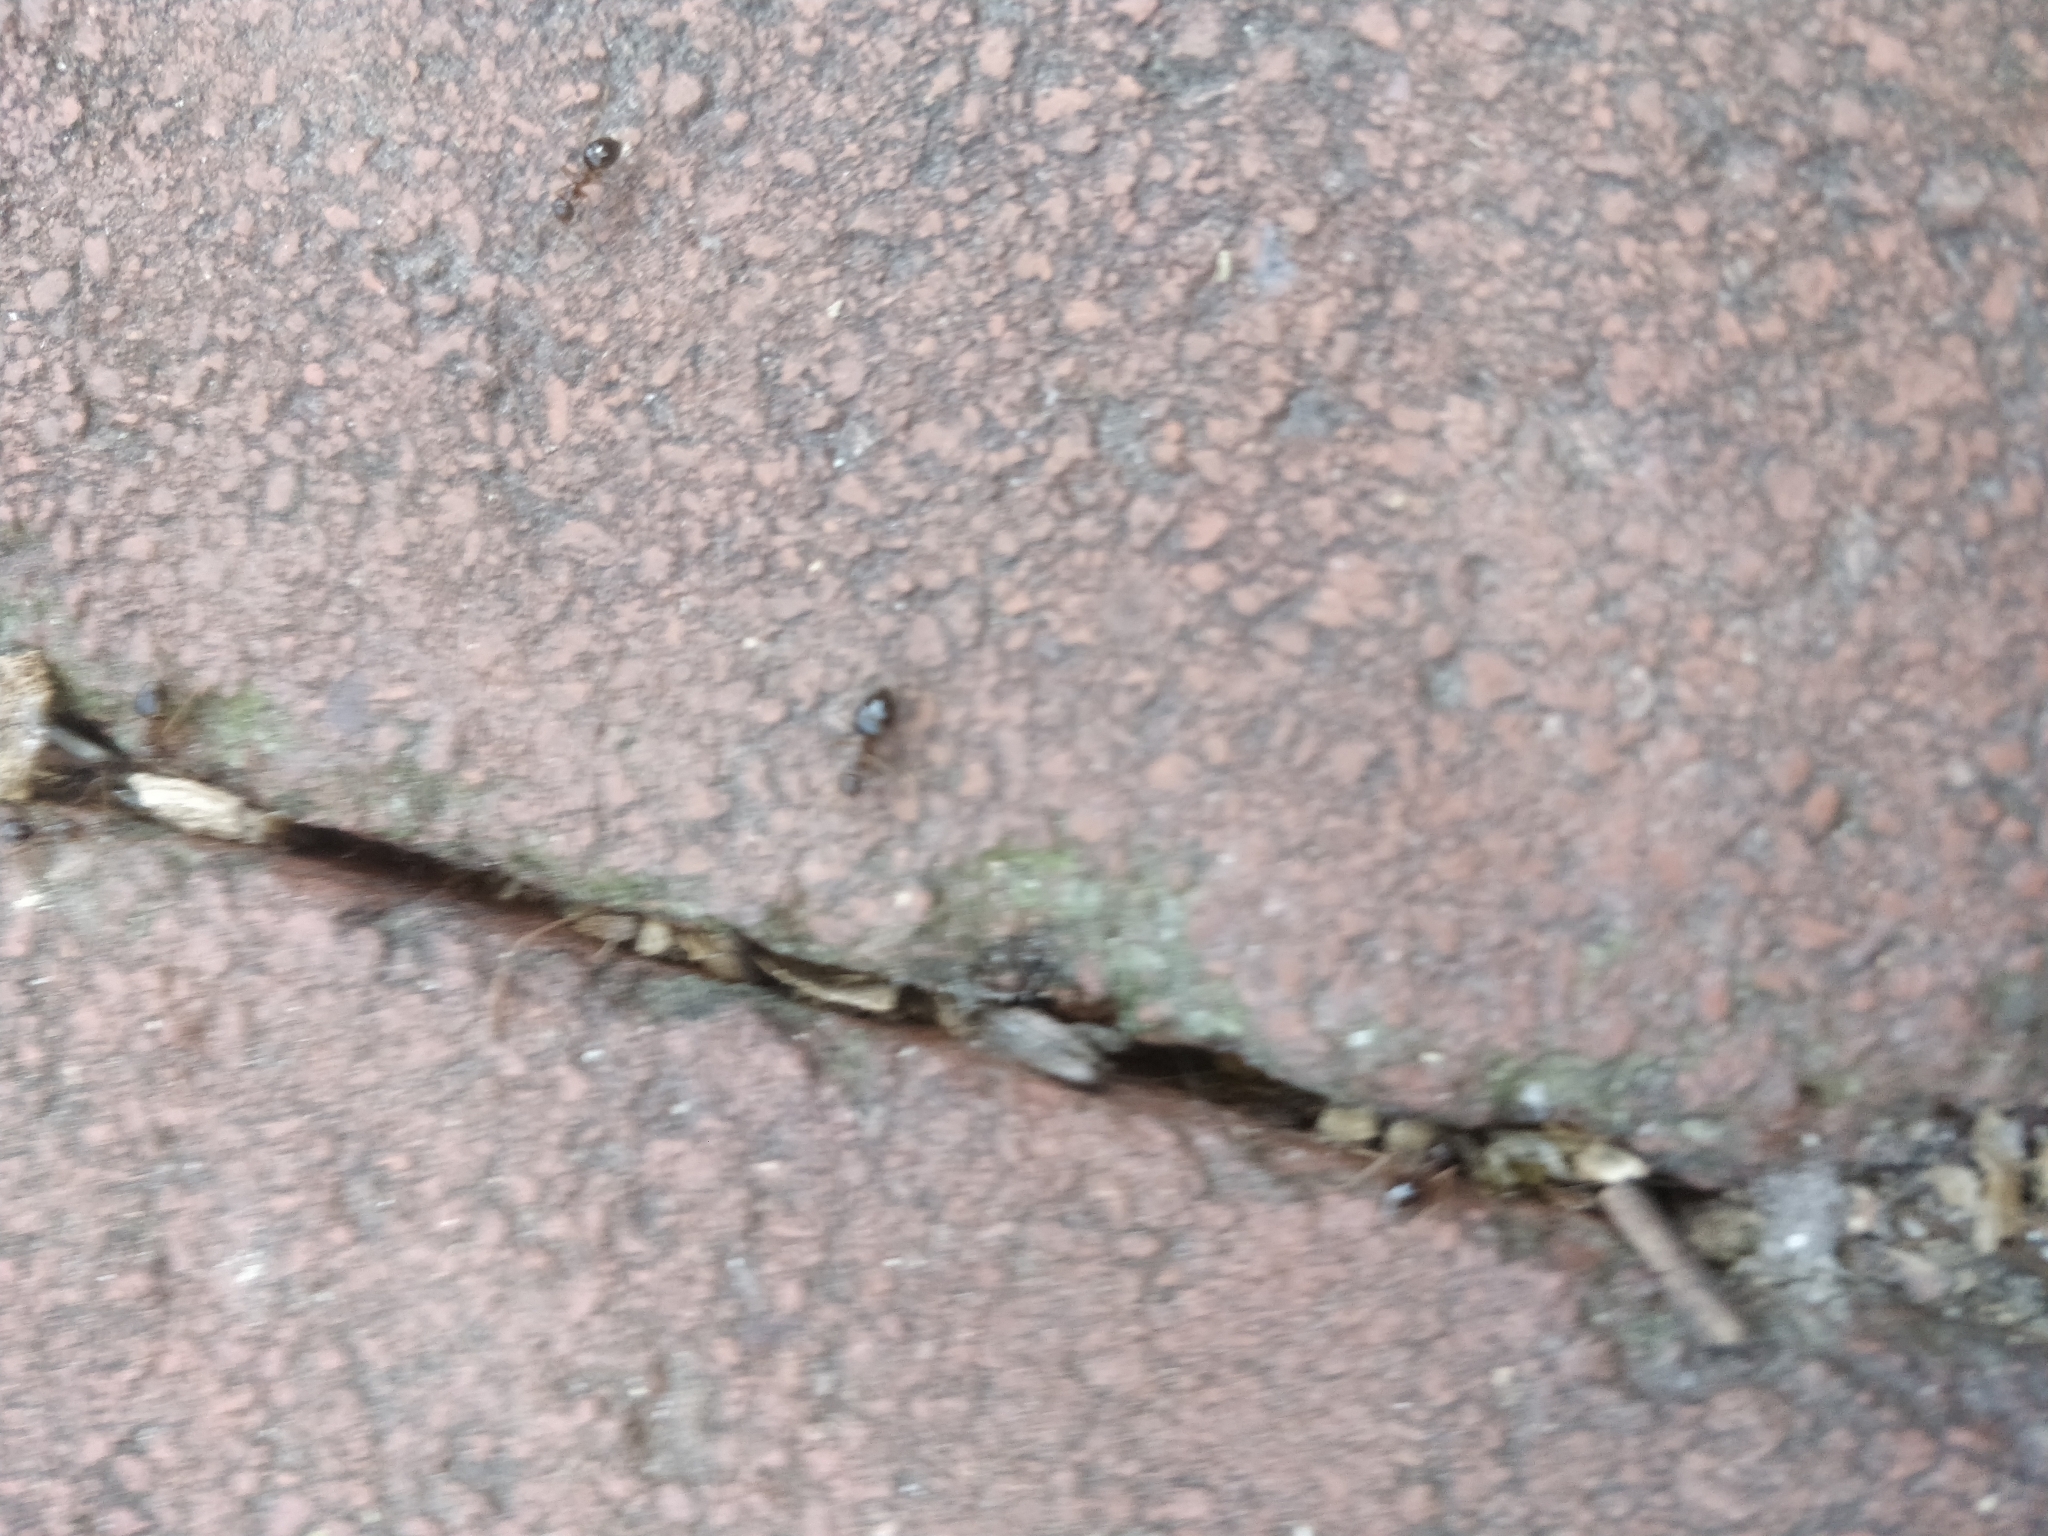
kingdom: Animalia
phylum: Arthropoda
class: Insecta
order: Hymenoptera
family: Formicidae
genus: Prenolepis
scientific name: Prenolepis imparis
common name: Small honey ant
